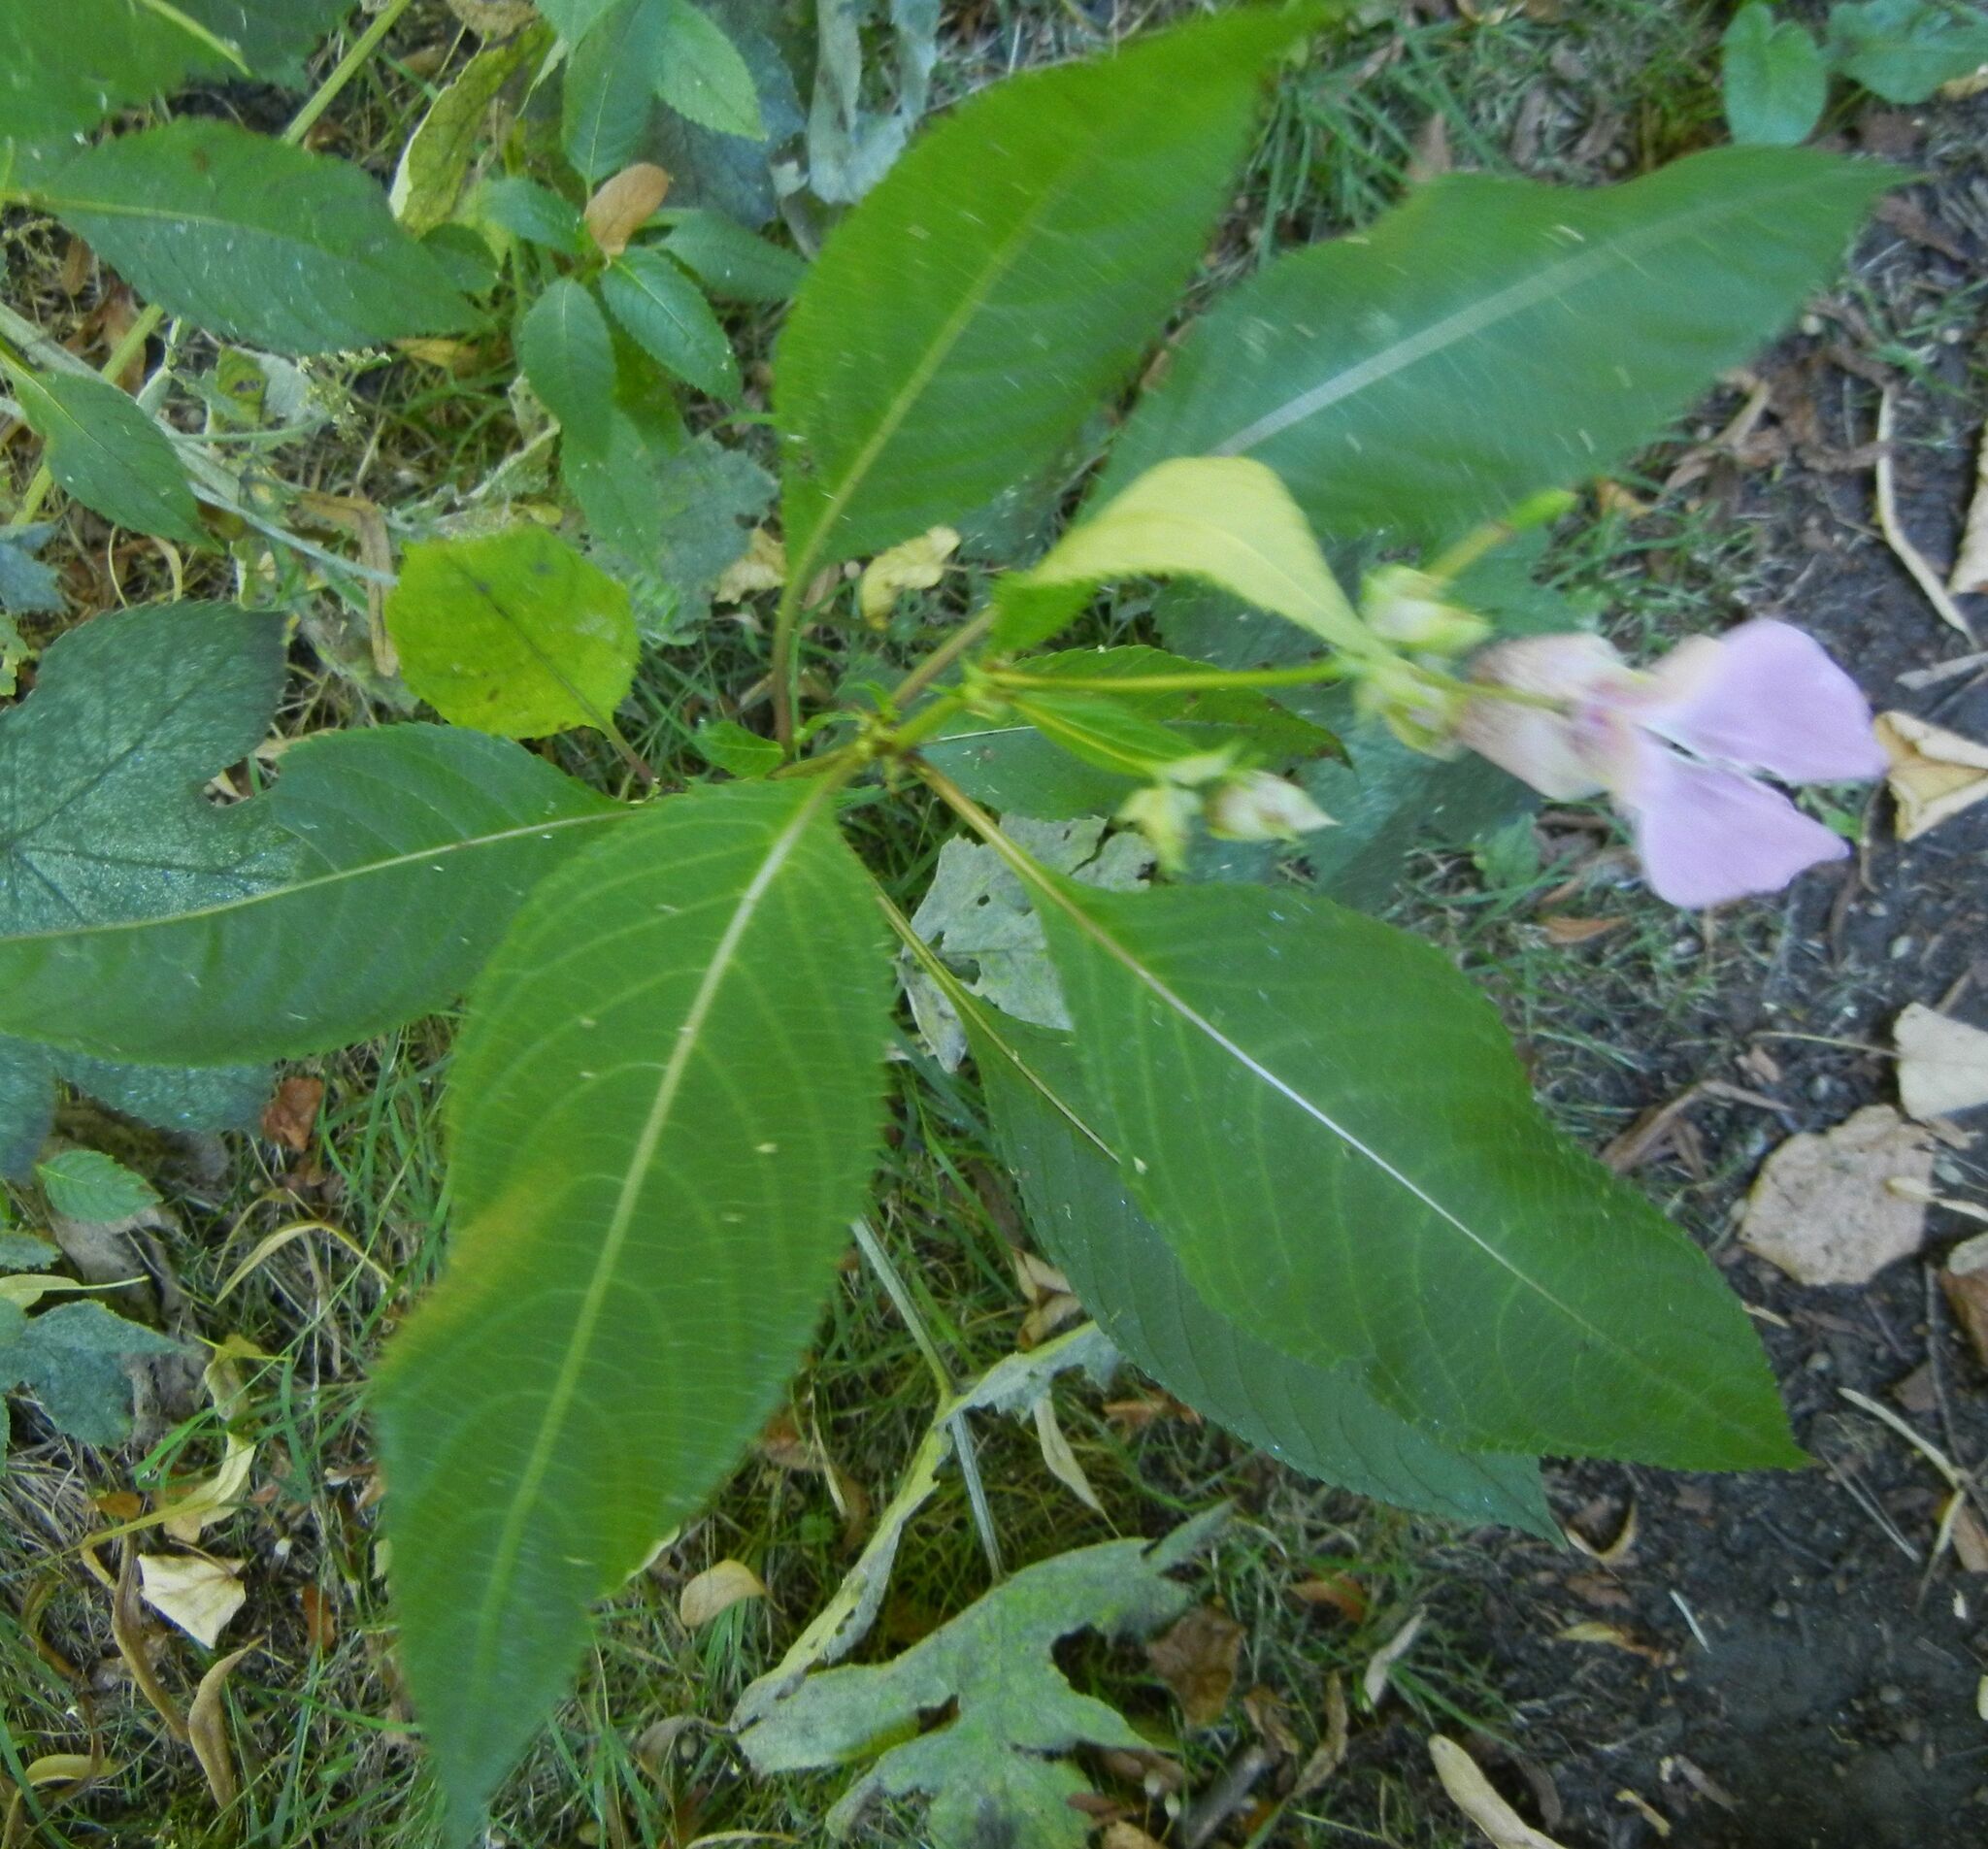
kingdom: Plantae
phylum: Tracheophyta
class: Magnoliopsida
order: Ericales
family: Balsaminaceae
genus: Impatiens
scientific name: Impatiens glandulifera
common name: Himalayan balsam
